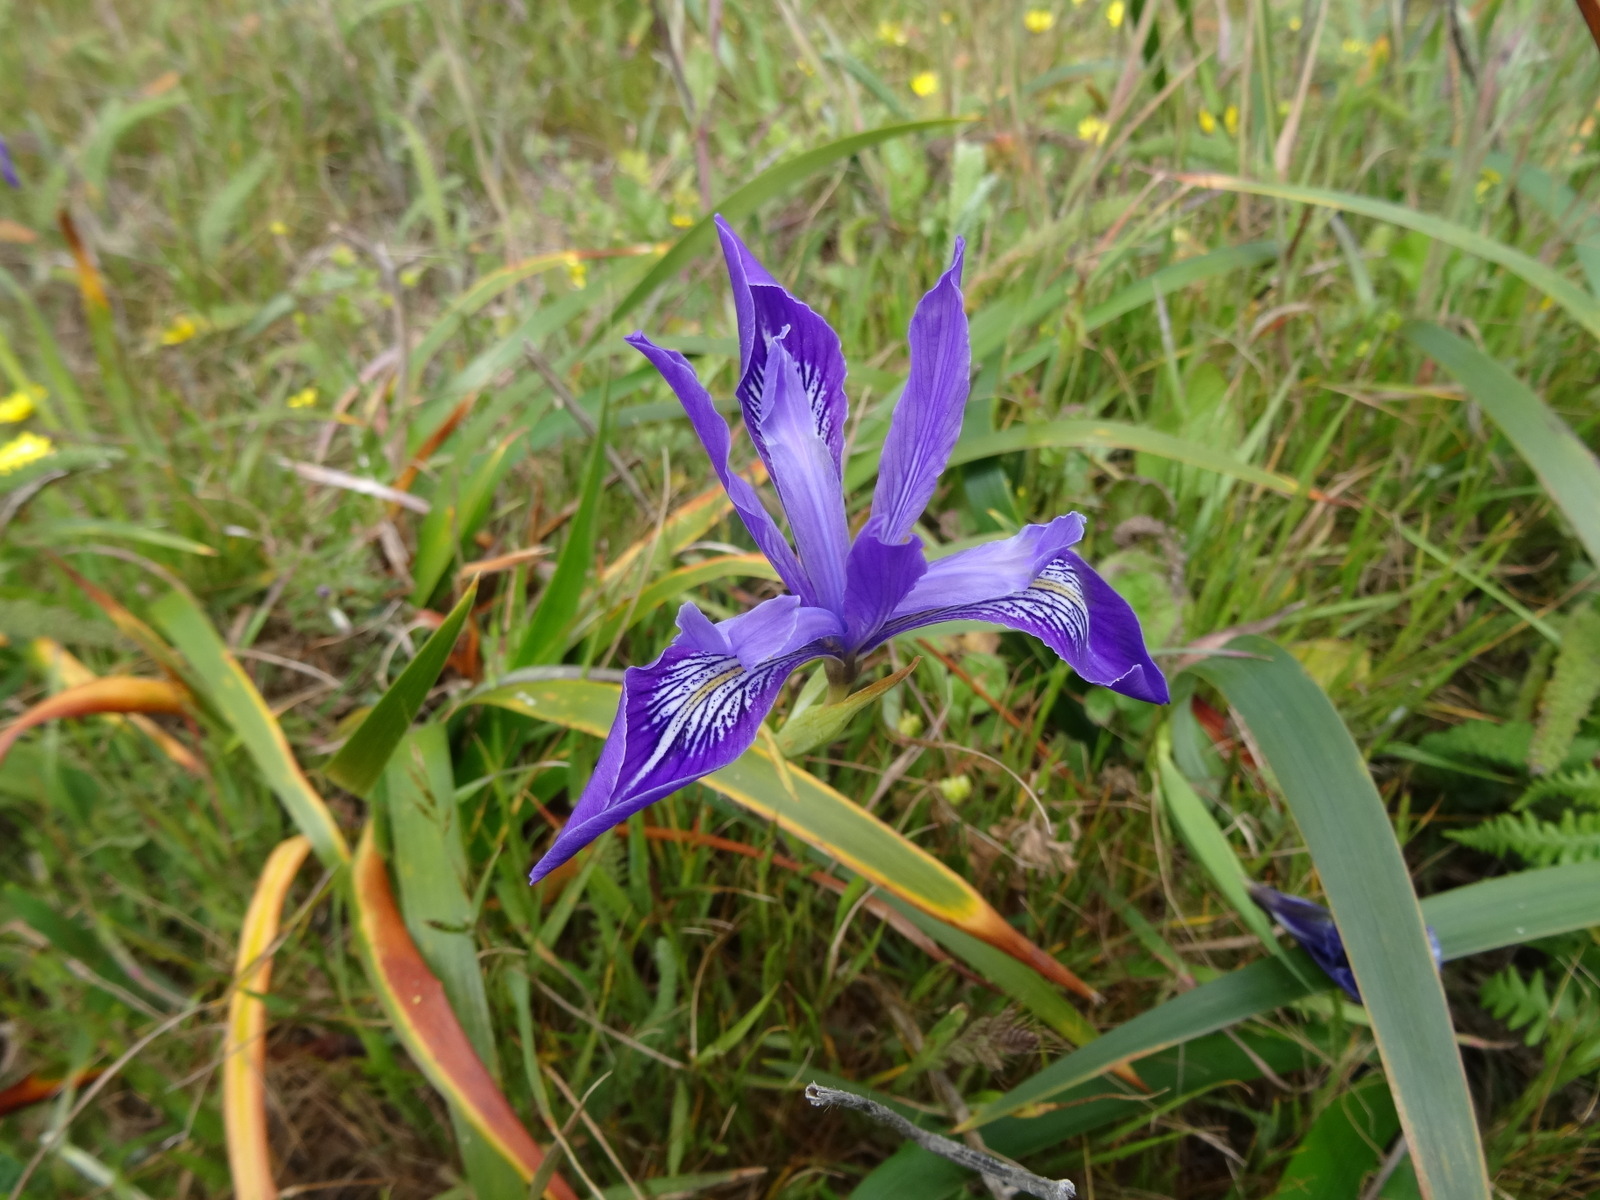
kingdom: Plantae
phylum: Tracheophyta
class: Liliopsida
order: Asparagales
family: Iridaceae
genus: Iris
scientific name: Iris douglasiana
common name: Marin iris
